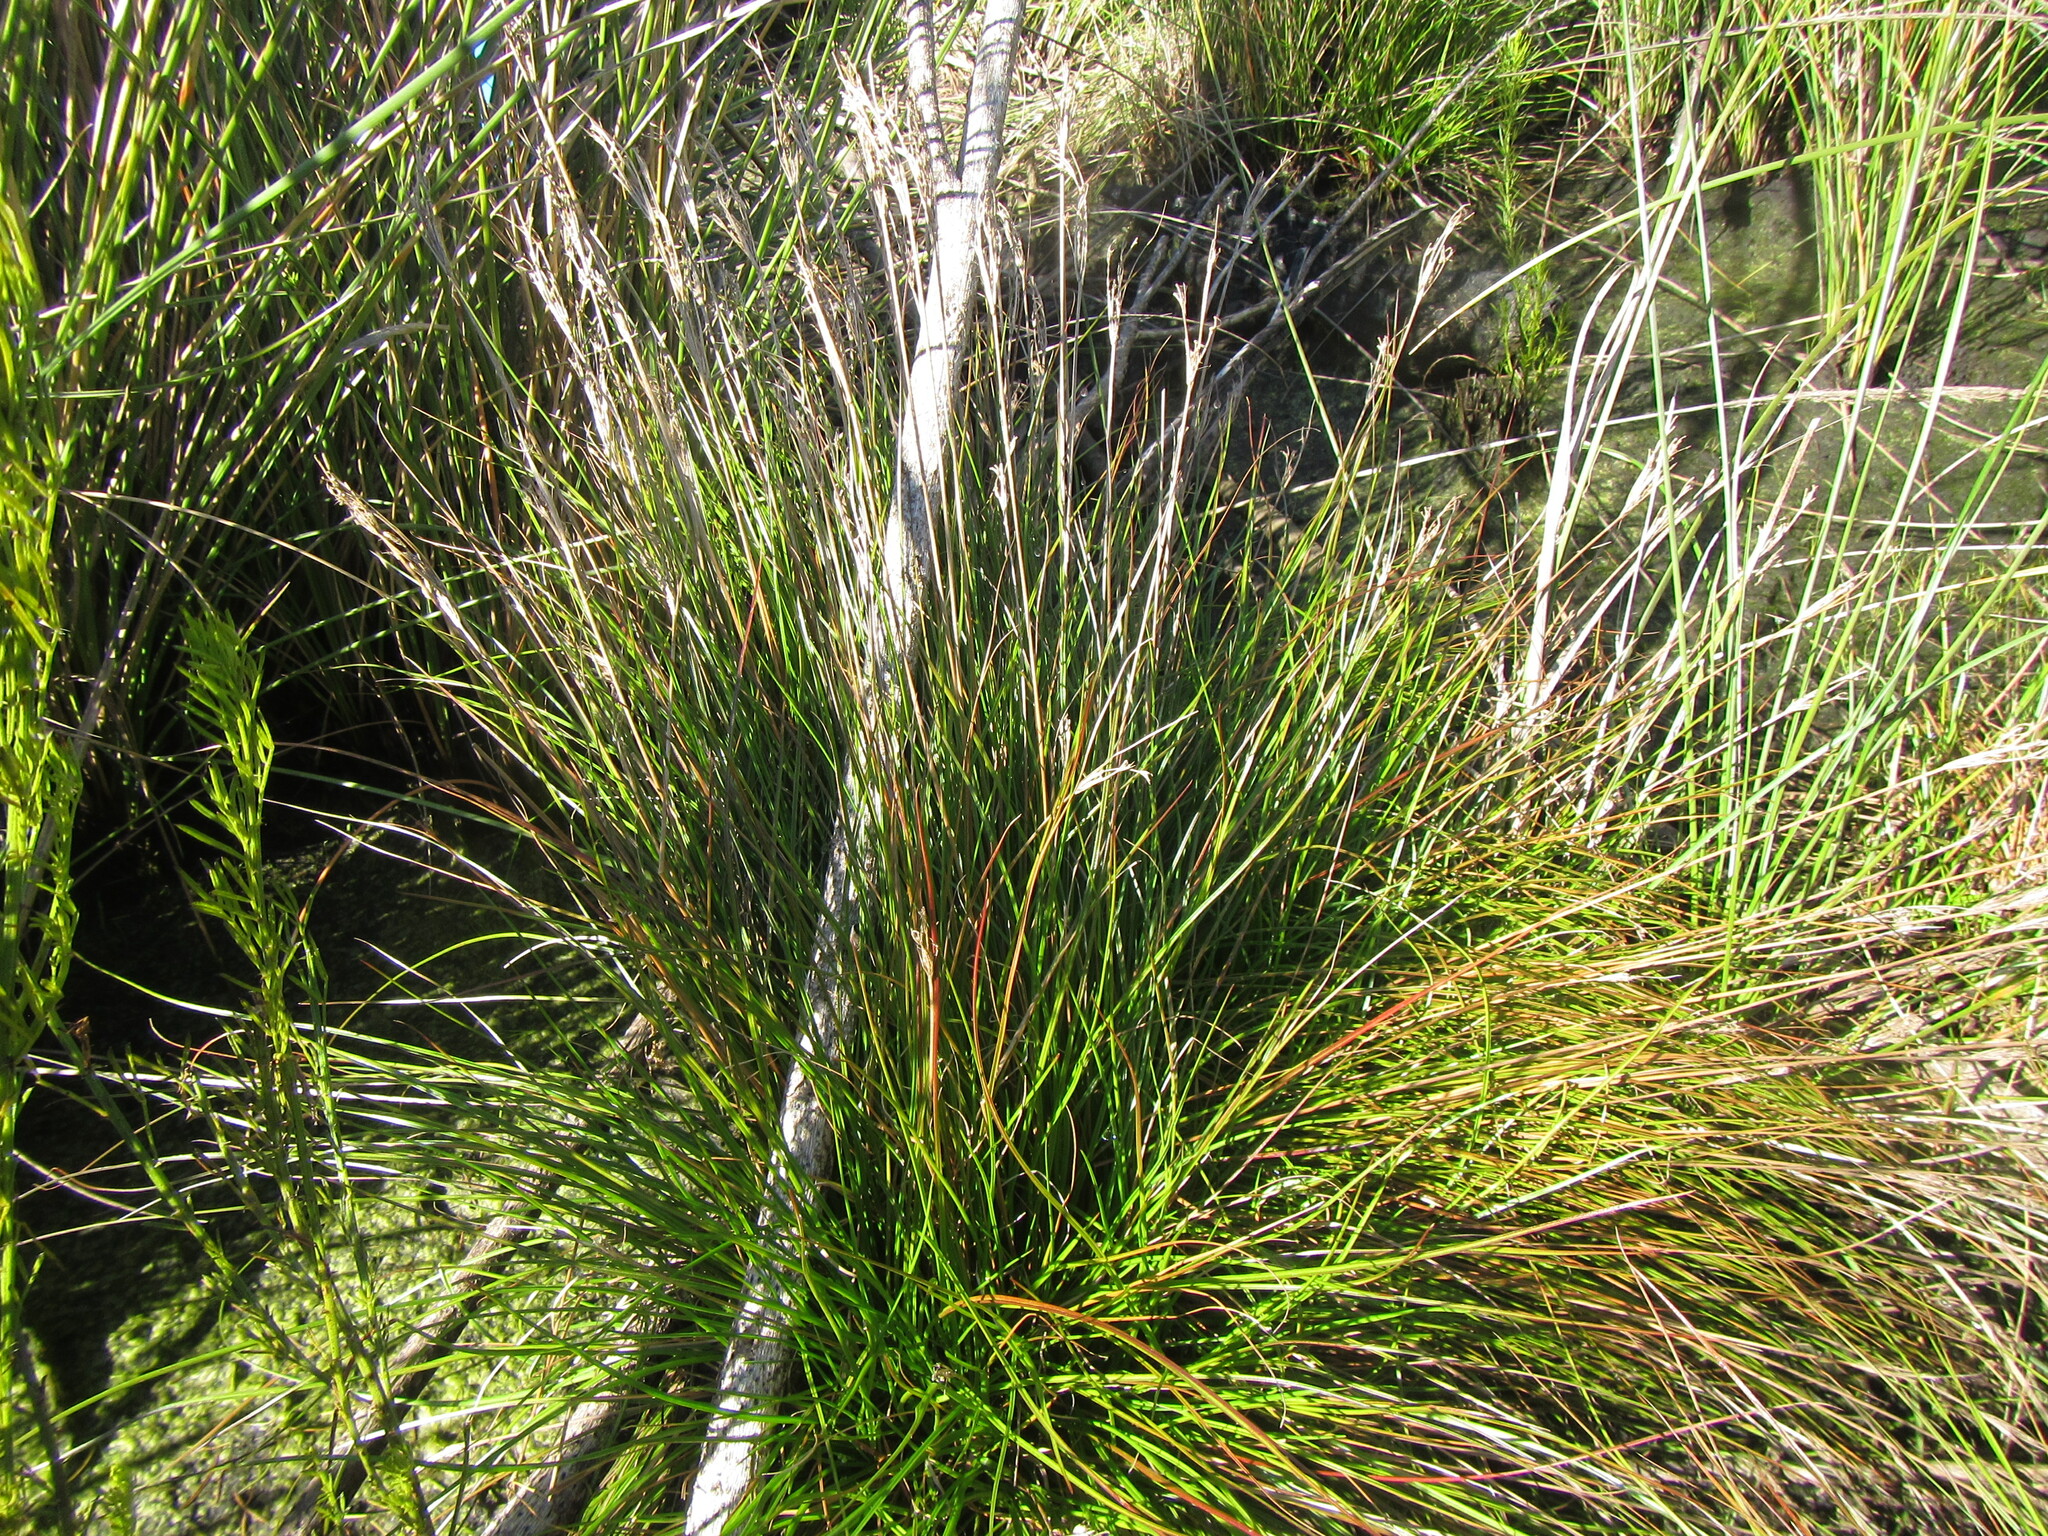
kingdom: Plantae
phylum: Tracheophyta
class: Liliopsida
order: Poales
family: Juncaceae
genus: Juncus
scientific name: Juncus capensis
